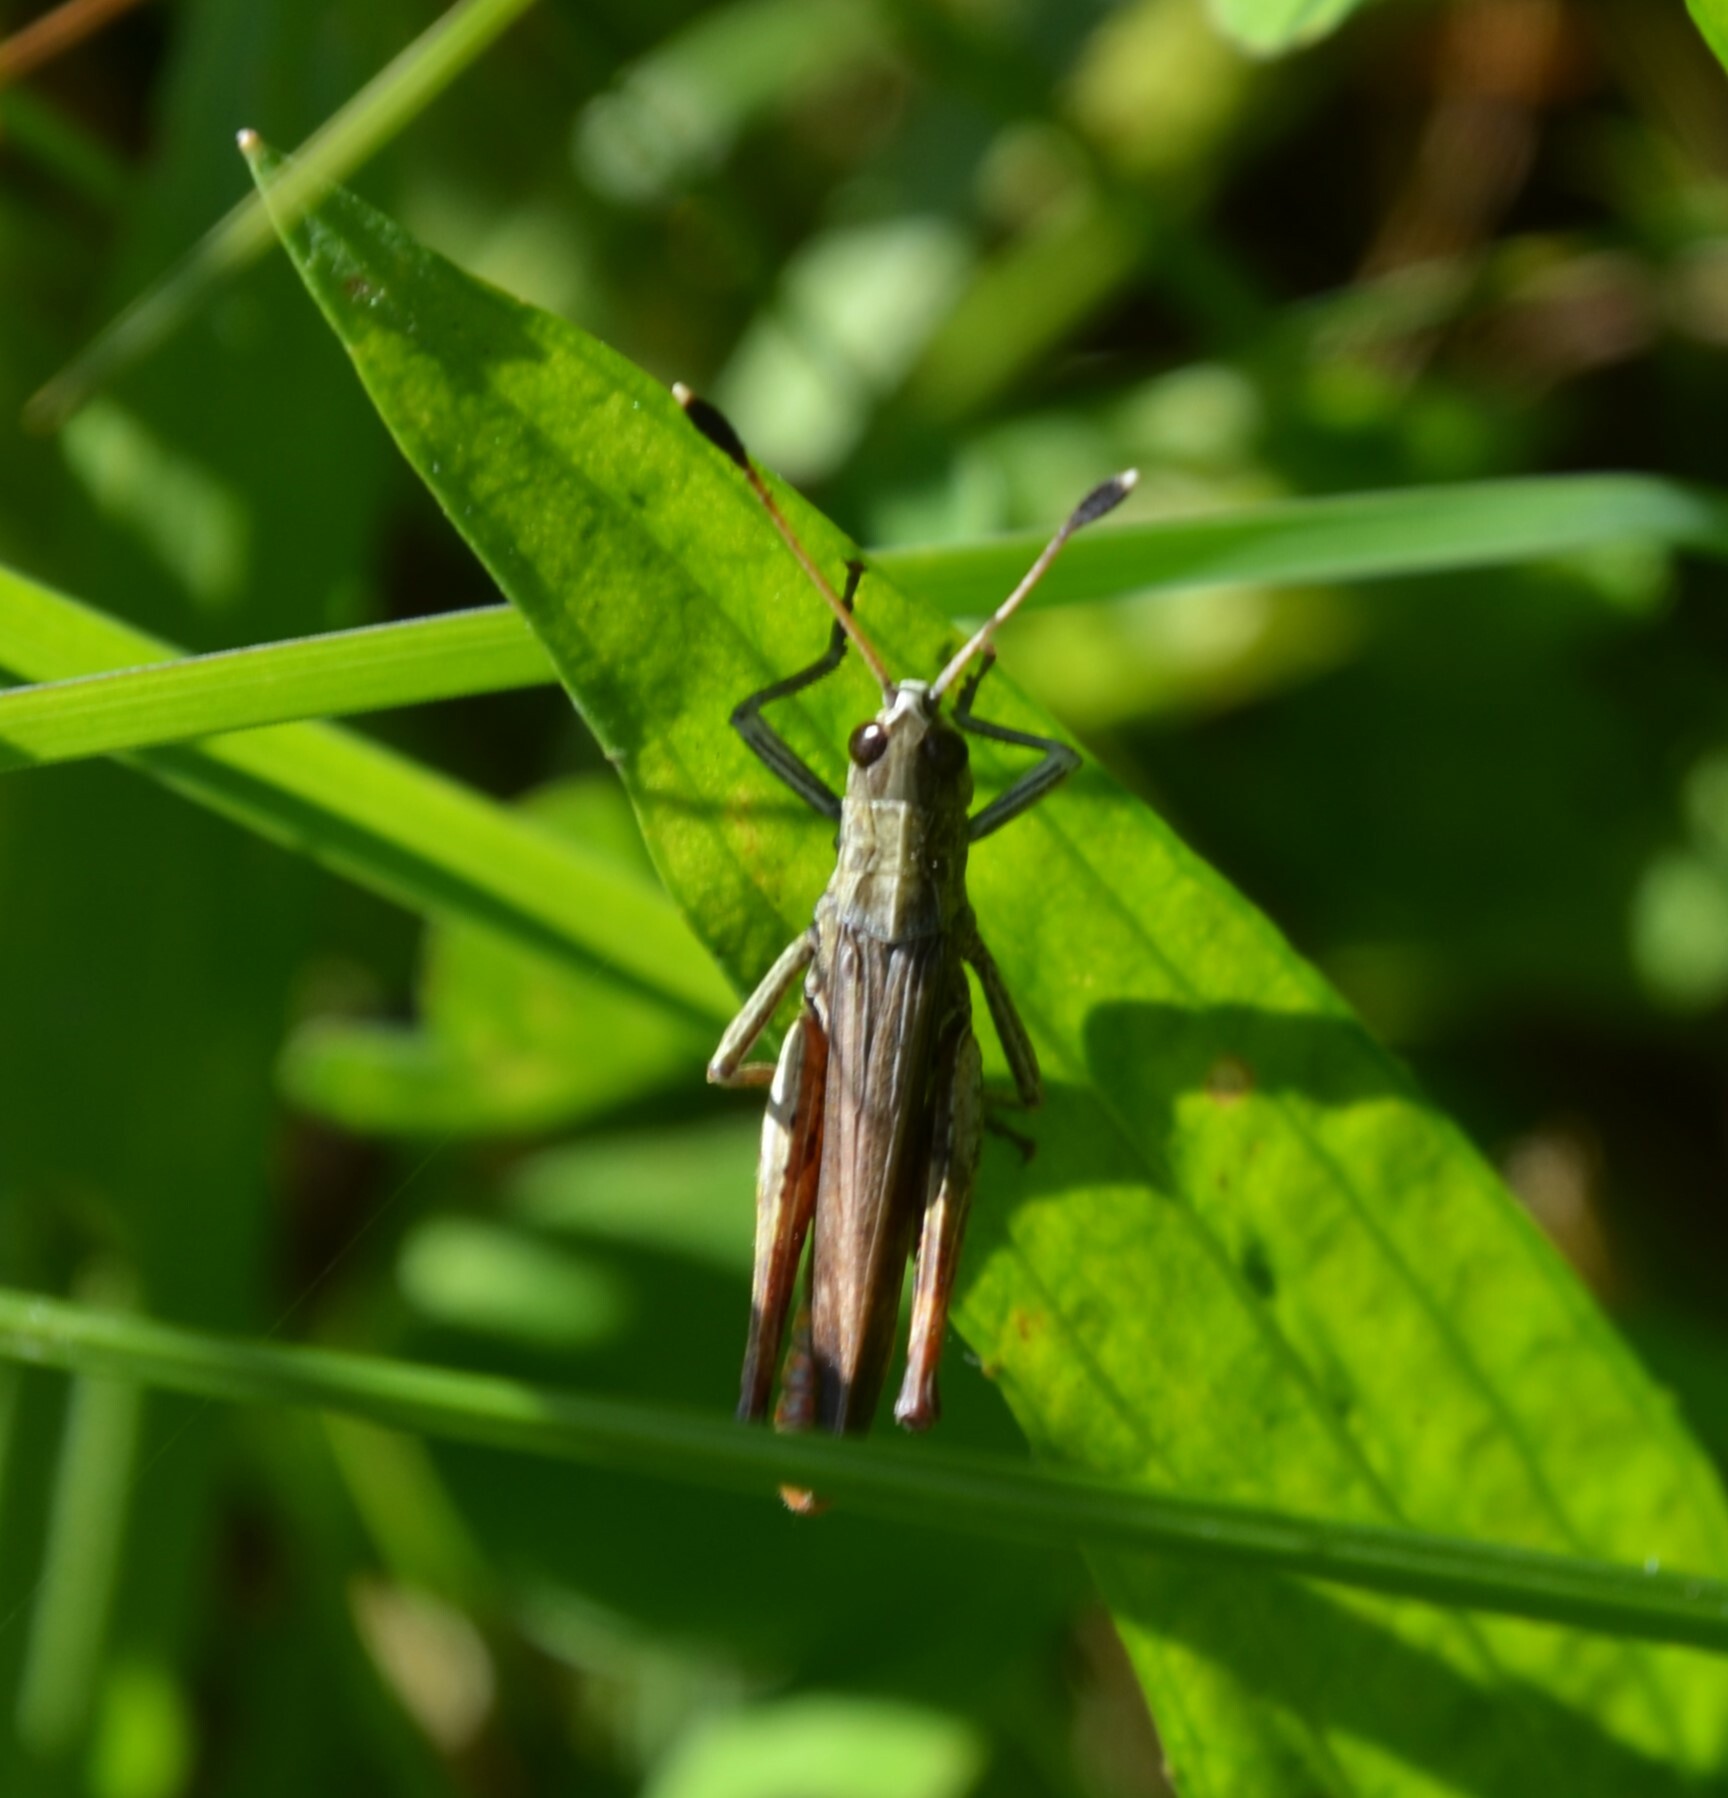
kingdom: Animalia
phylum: Arthropoda
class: Insecta
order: Orthoptera
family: Acrididae
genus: Gomphocerippus
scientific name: Gomphocerippus rufus
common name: Rufous grasshopper
